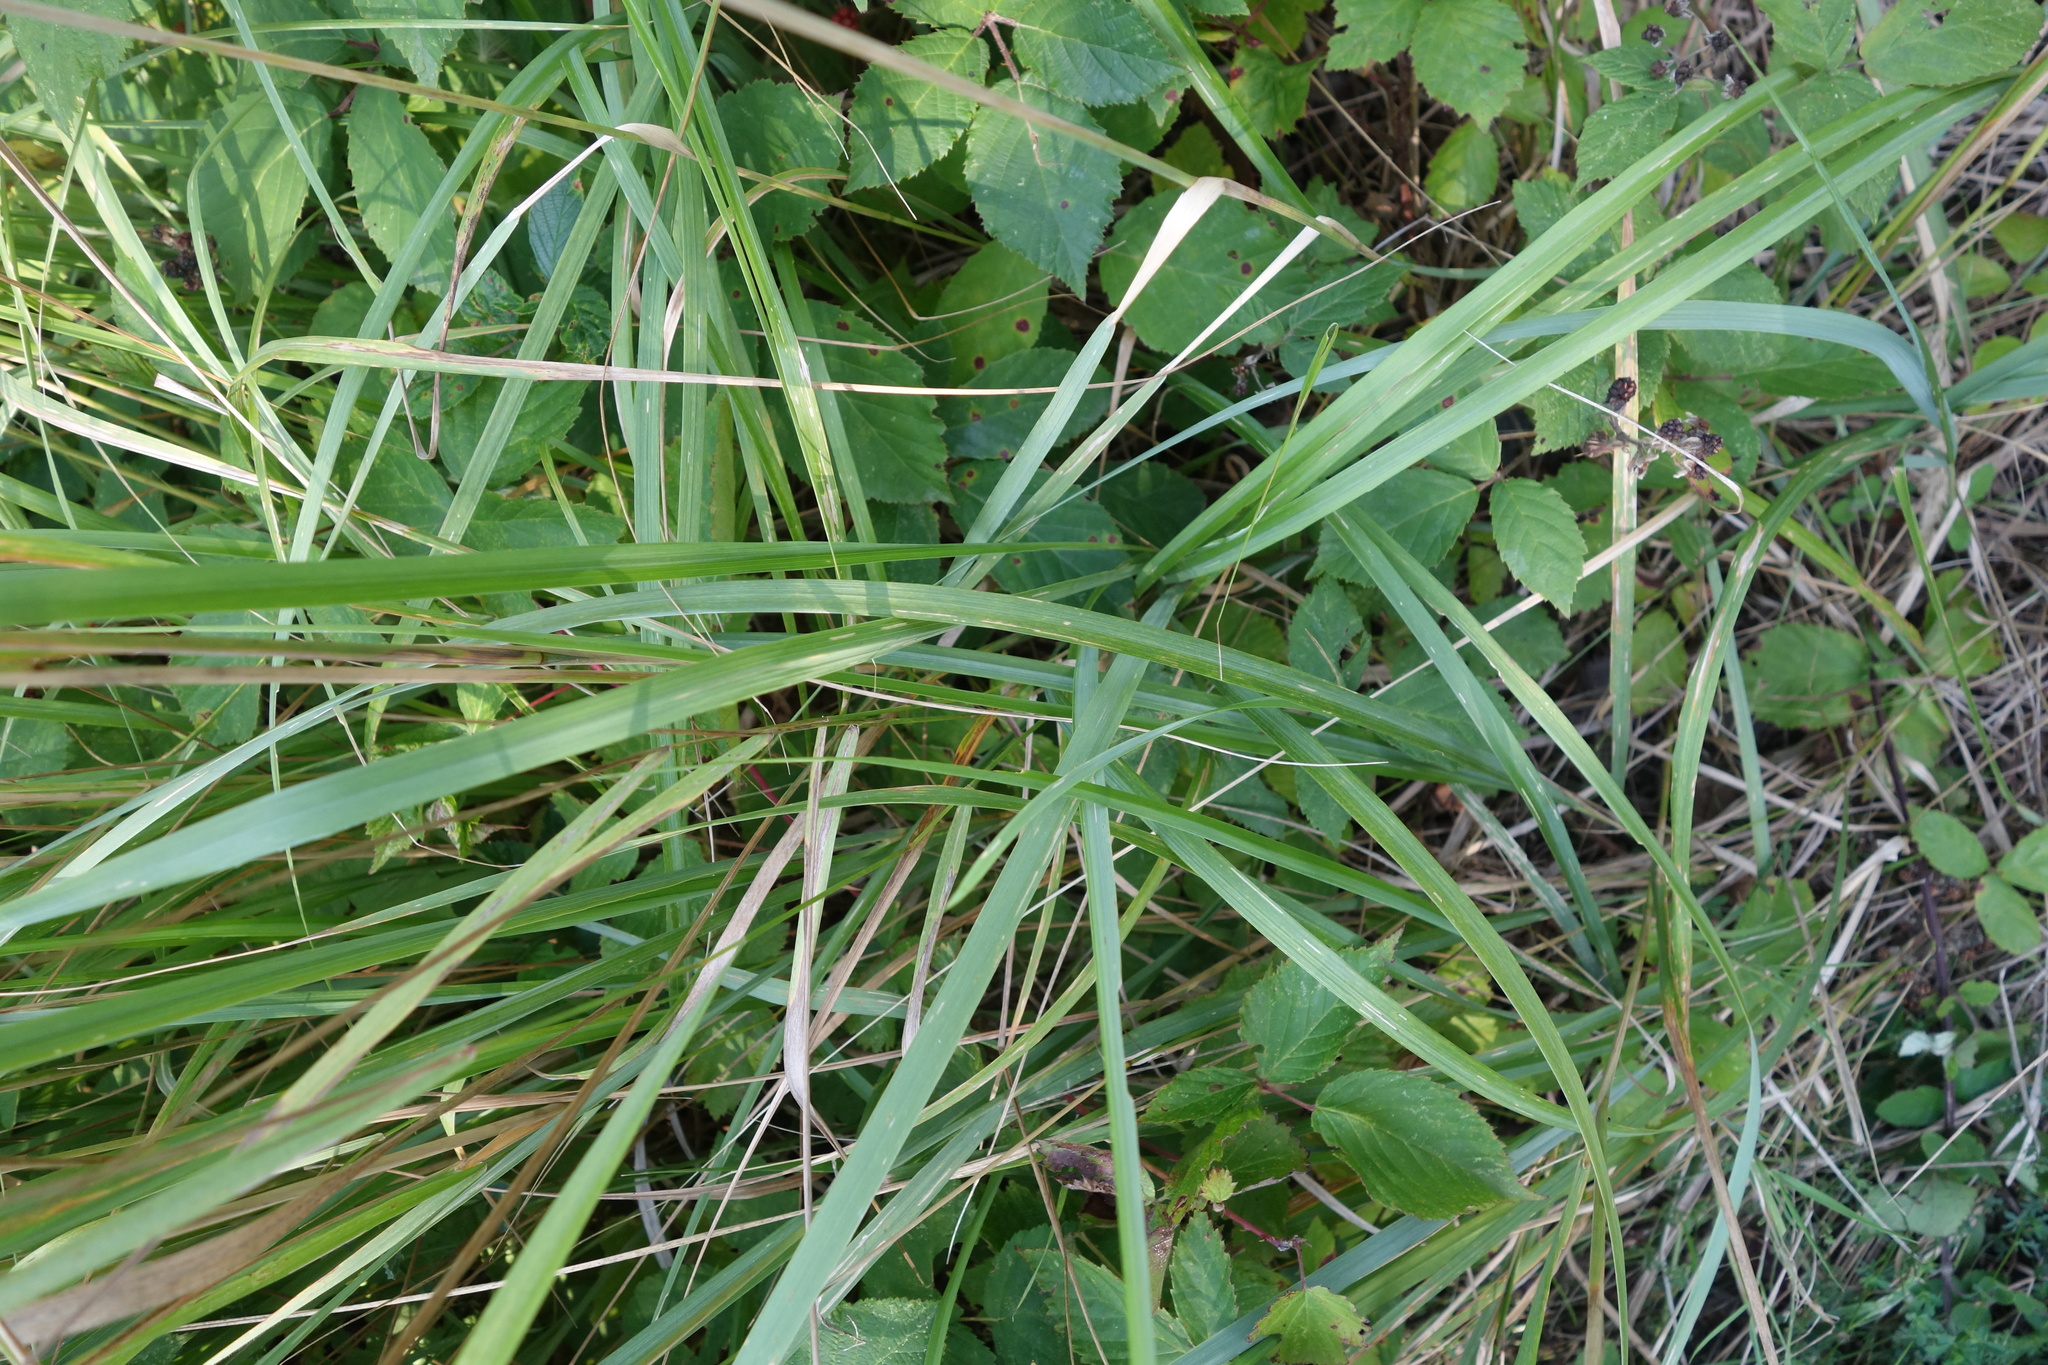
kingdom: Plantae
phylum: Tracheophyta
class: Liliopsida
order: Poales
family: Poaceae
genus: Calamagrostis
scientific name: Calamagrostis epigejos
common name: Wood small-reed
